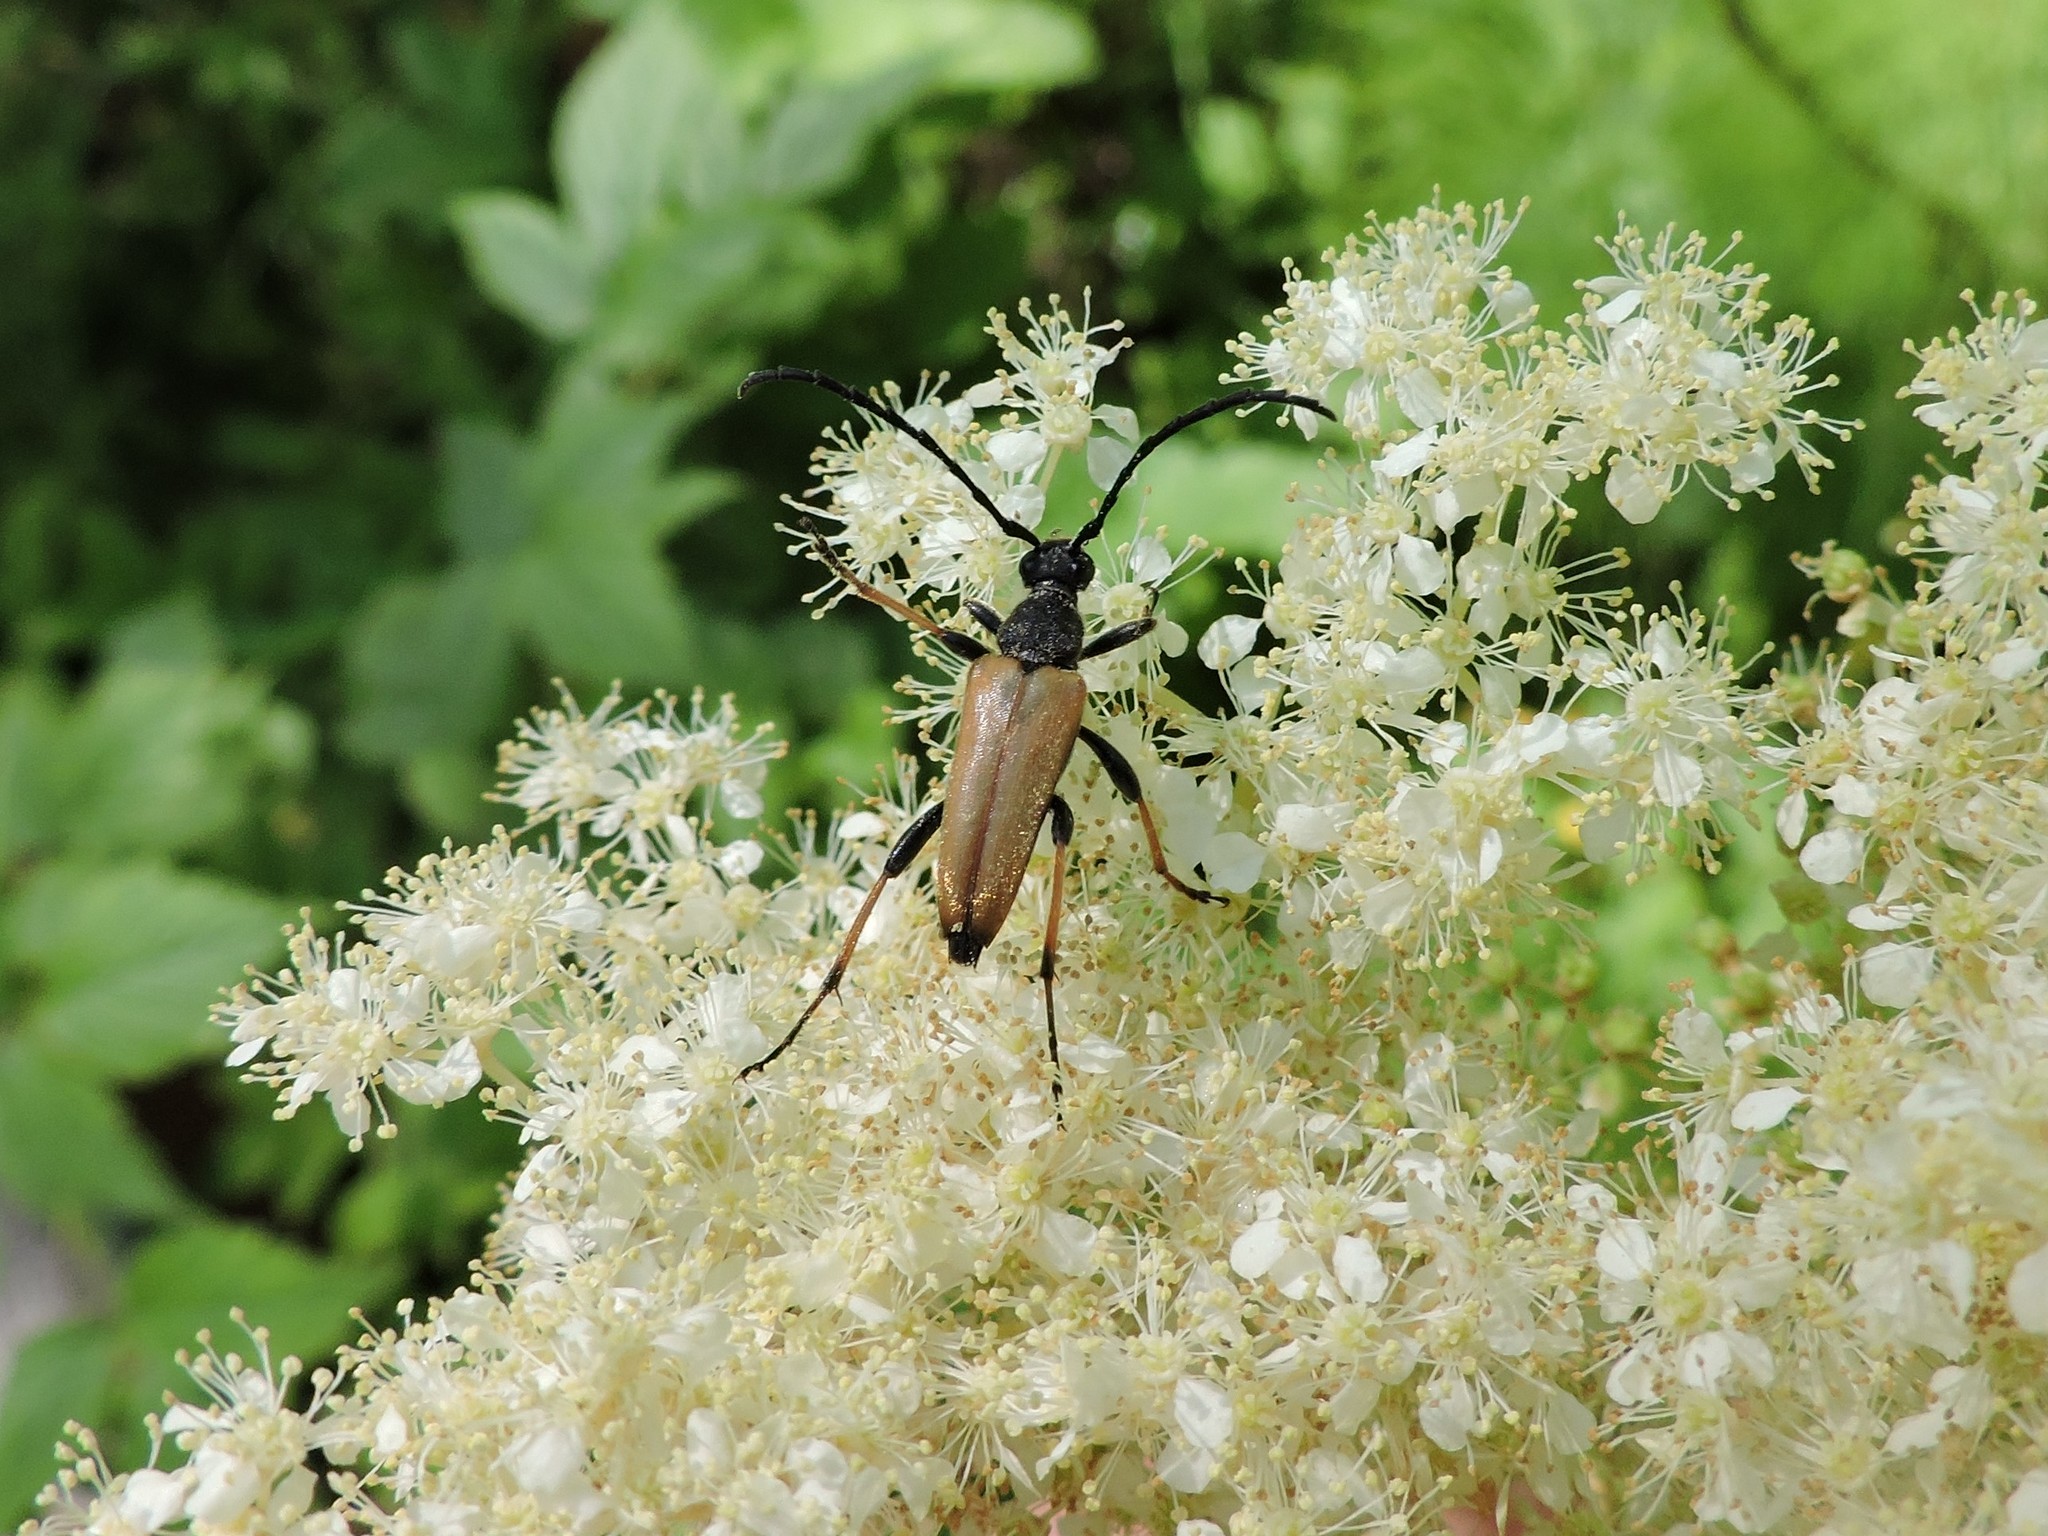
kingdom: Animalia
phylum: Arthropoda
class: Insecta
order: Coleoptera
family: Cerambycidae
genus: Stictoleptura
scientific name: Stictoleptura rubra
